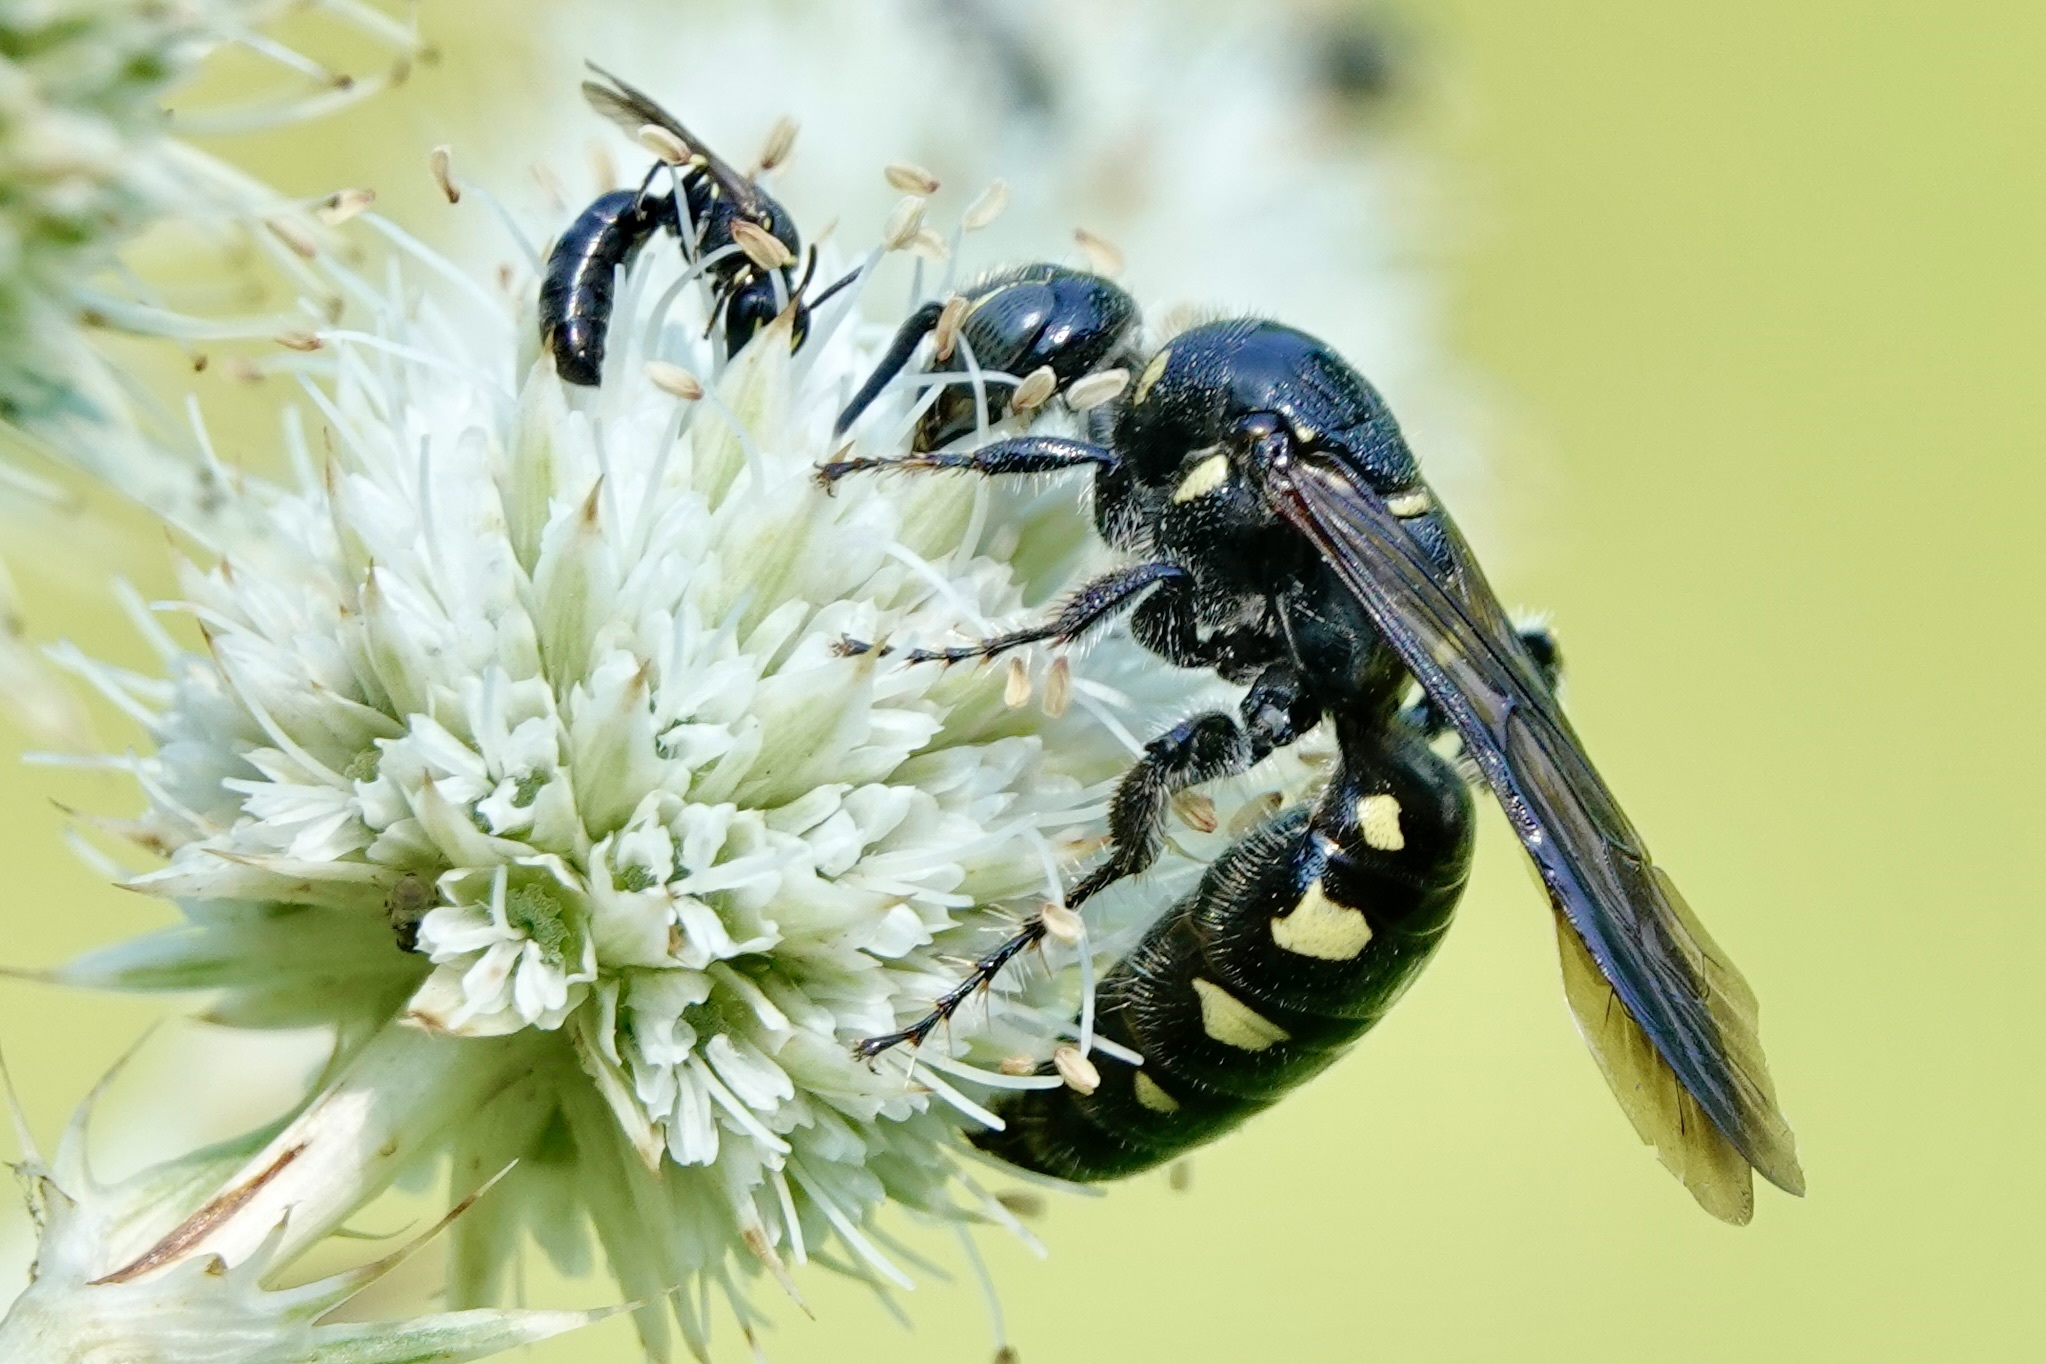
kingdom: Animalia
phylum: Arthropoda
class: Insecta
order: Hymenoptera
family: Tiphiidae
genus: Myzinum
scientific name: Myzinum obscurum
